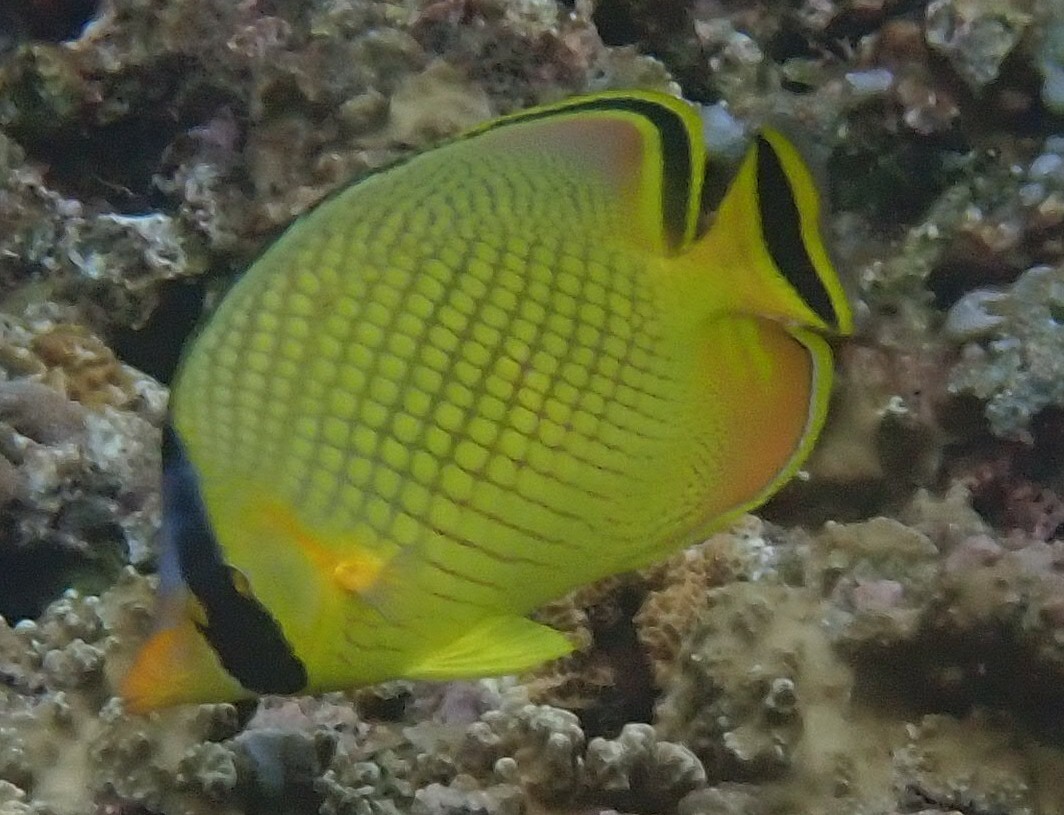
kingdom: Animalia
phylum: Chordata
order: Perciformes
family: Chaetodontidae
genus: Chaetodon
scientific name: Chaetodon rafflesii
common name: Latticed butterflyfish
